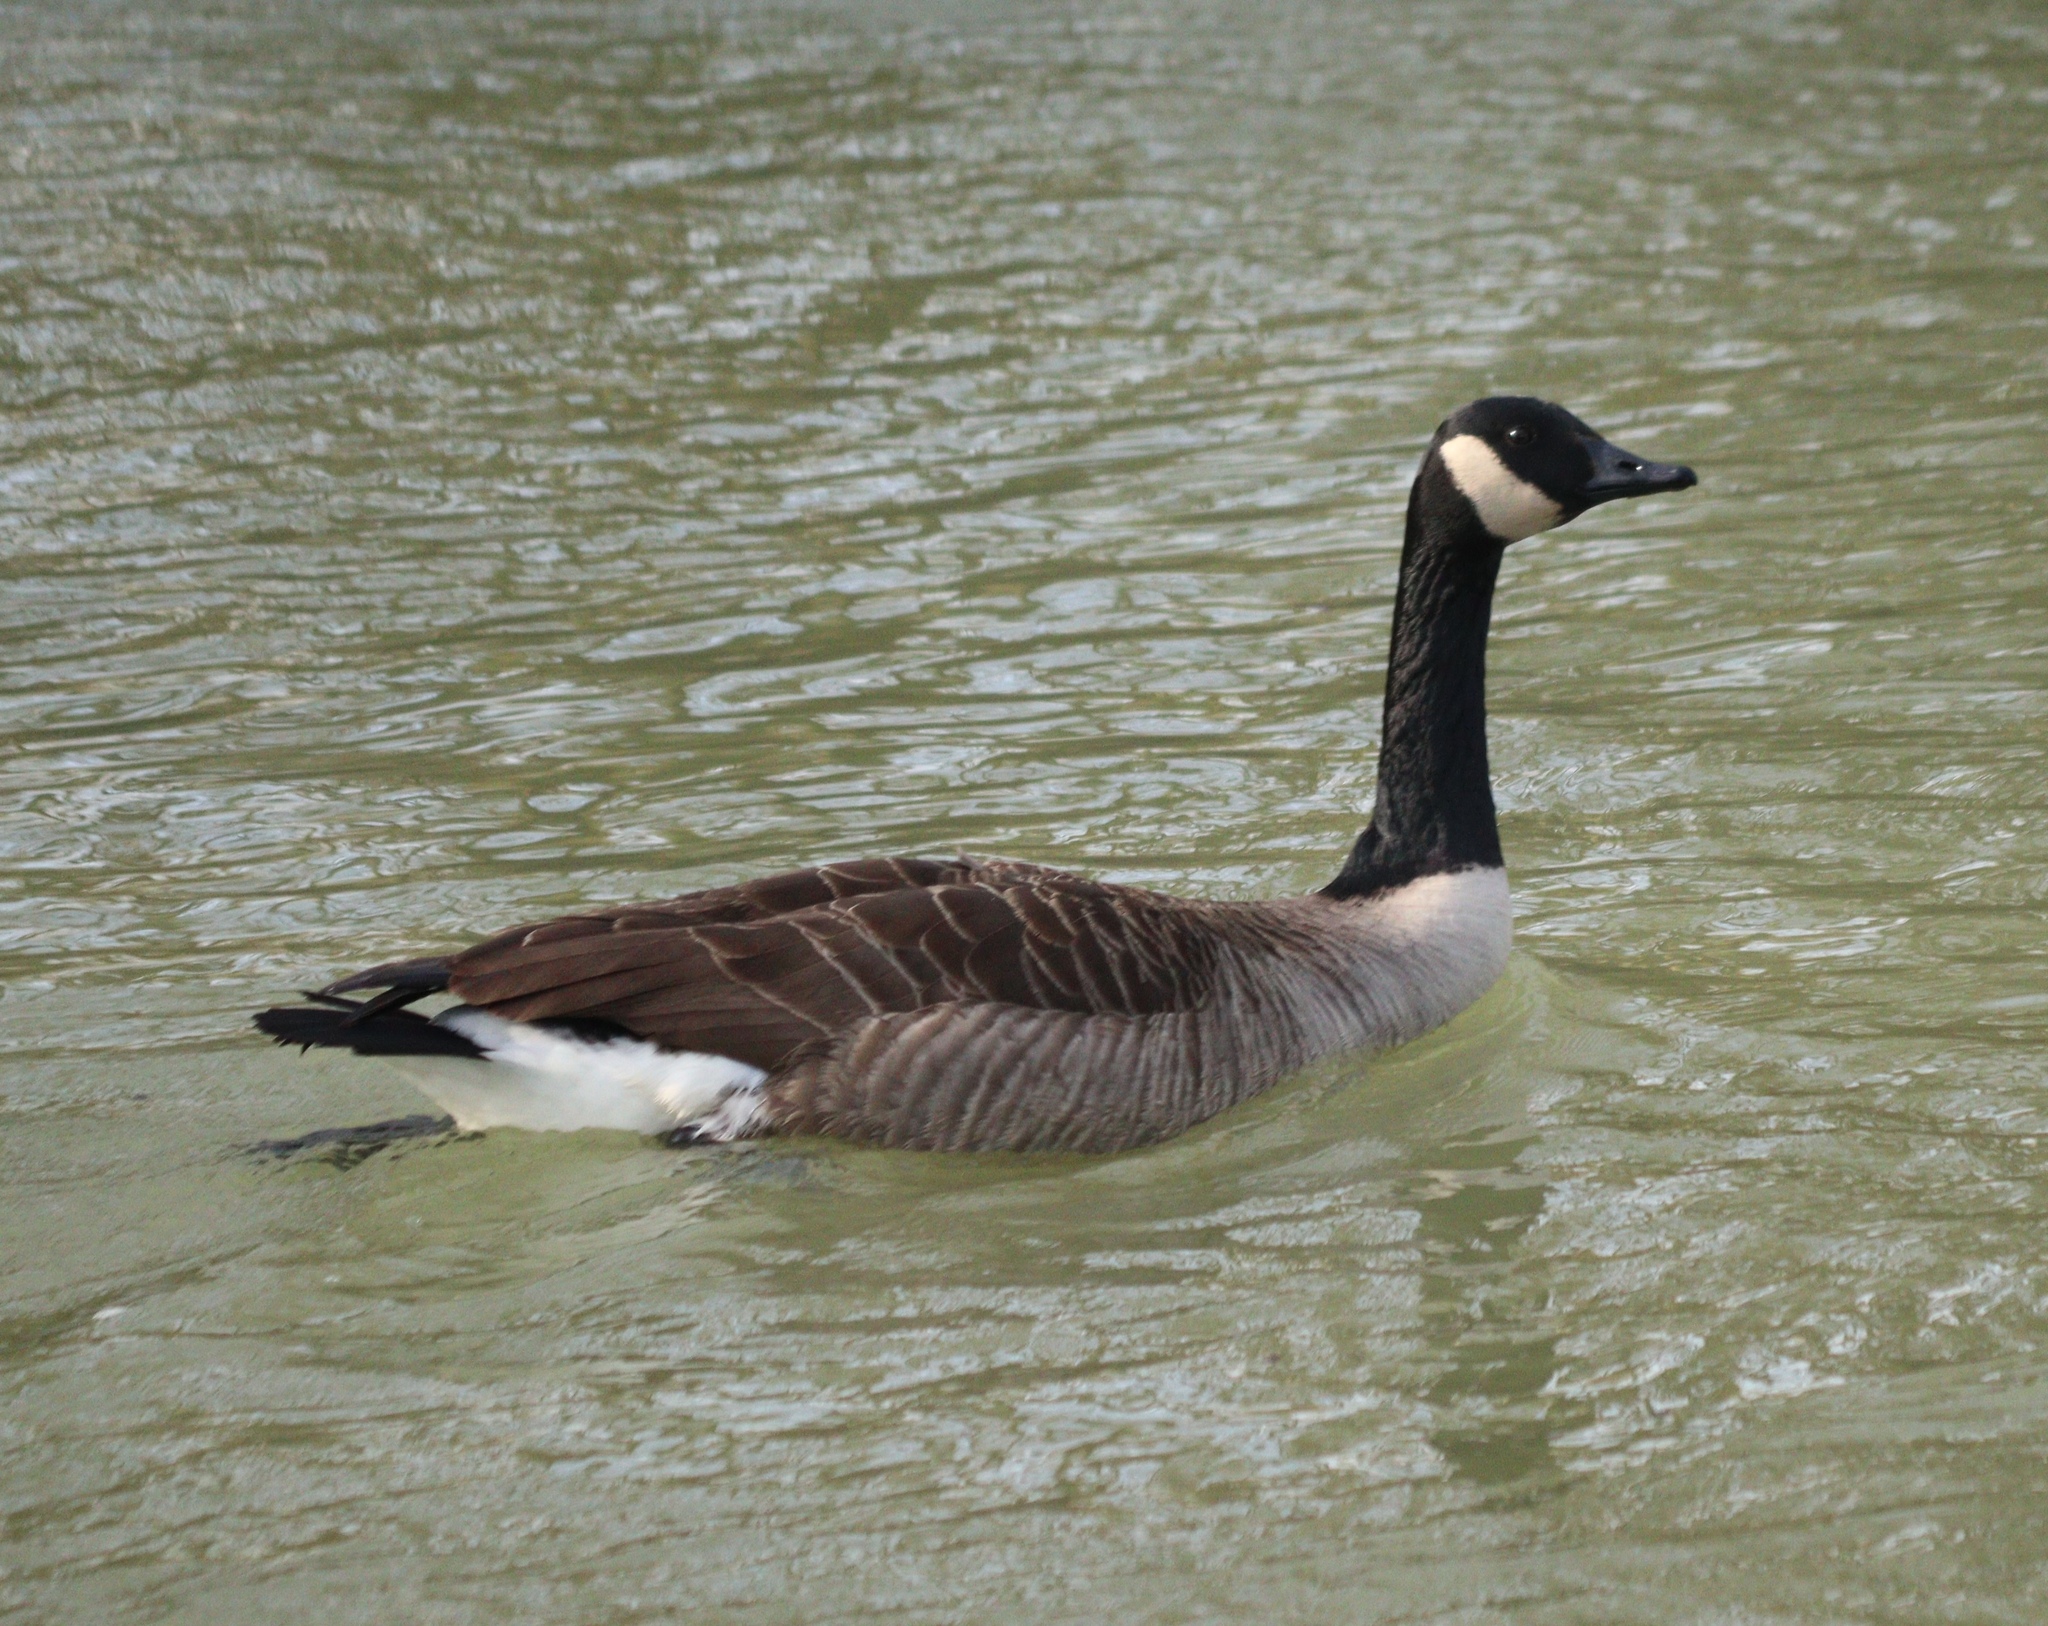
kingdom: Animalia
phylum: Chordata
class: Aves
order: Anseriformes
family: Anatidae
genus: Branta
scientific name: Branta canadensis
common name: Canada goose
